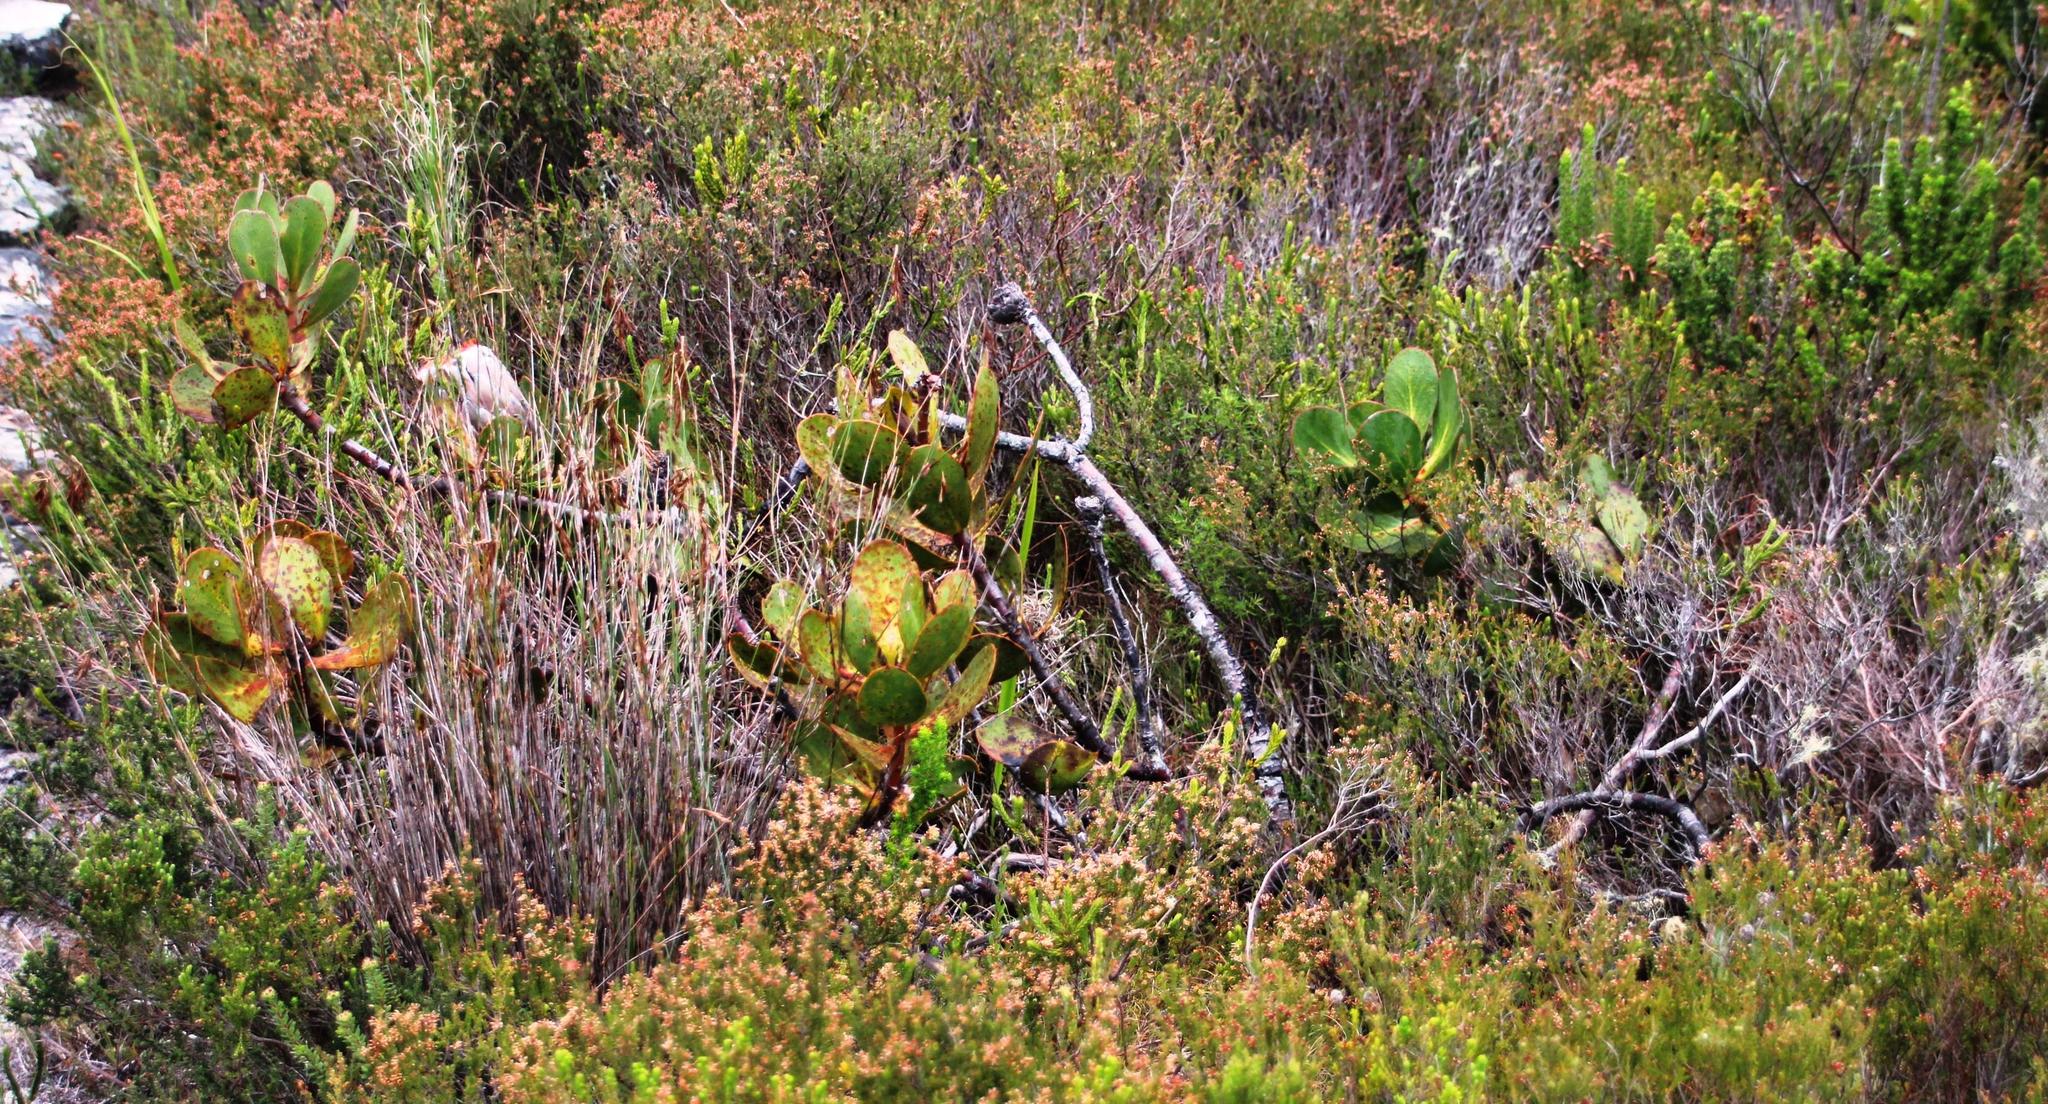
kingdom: Plantae
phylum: Tracheophyta
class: Magnoliopsida
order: Proteales
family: Proteaceae
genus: Protea
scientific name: Protea speciosa
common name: Brown-beard sugarbush
